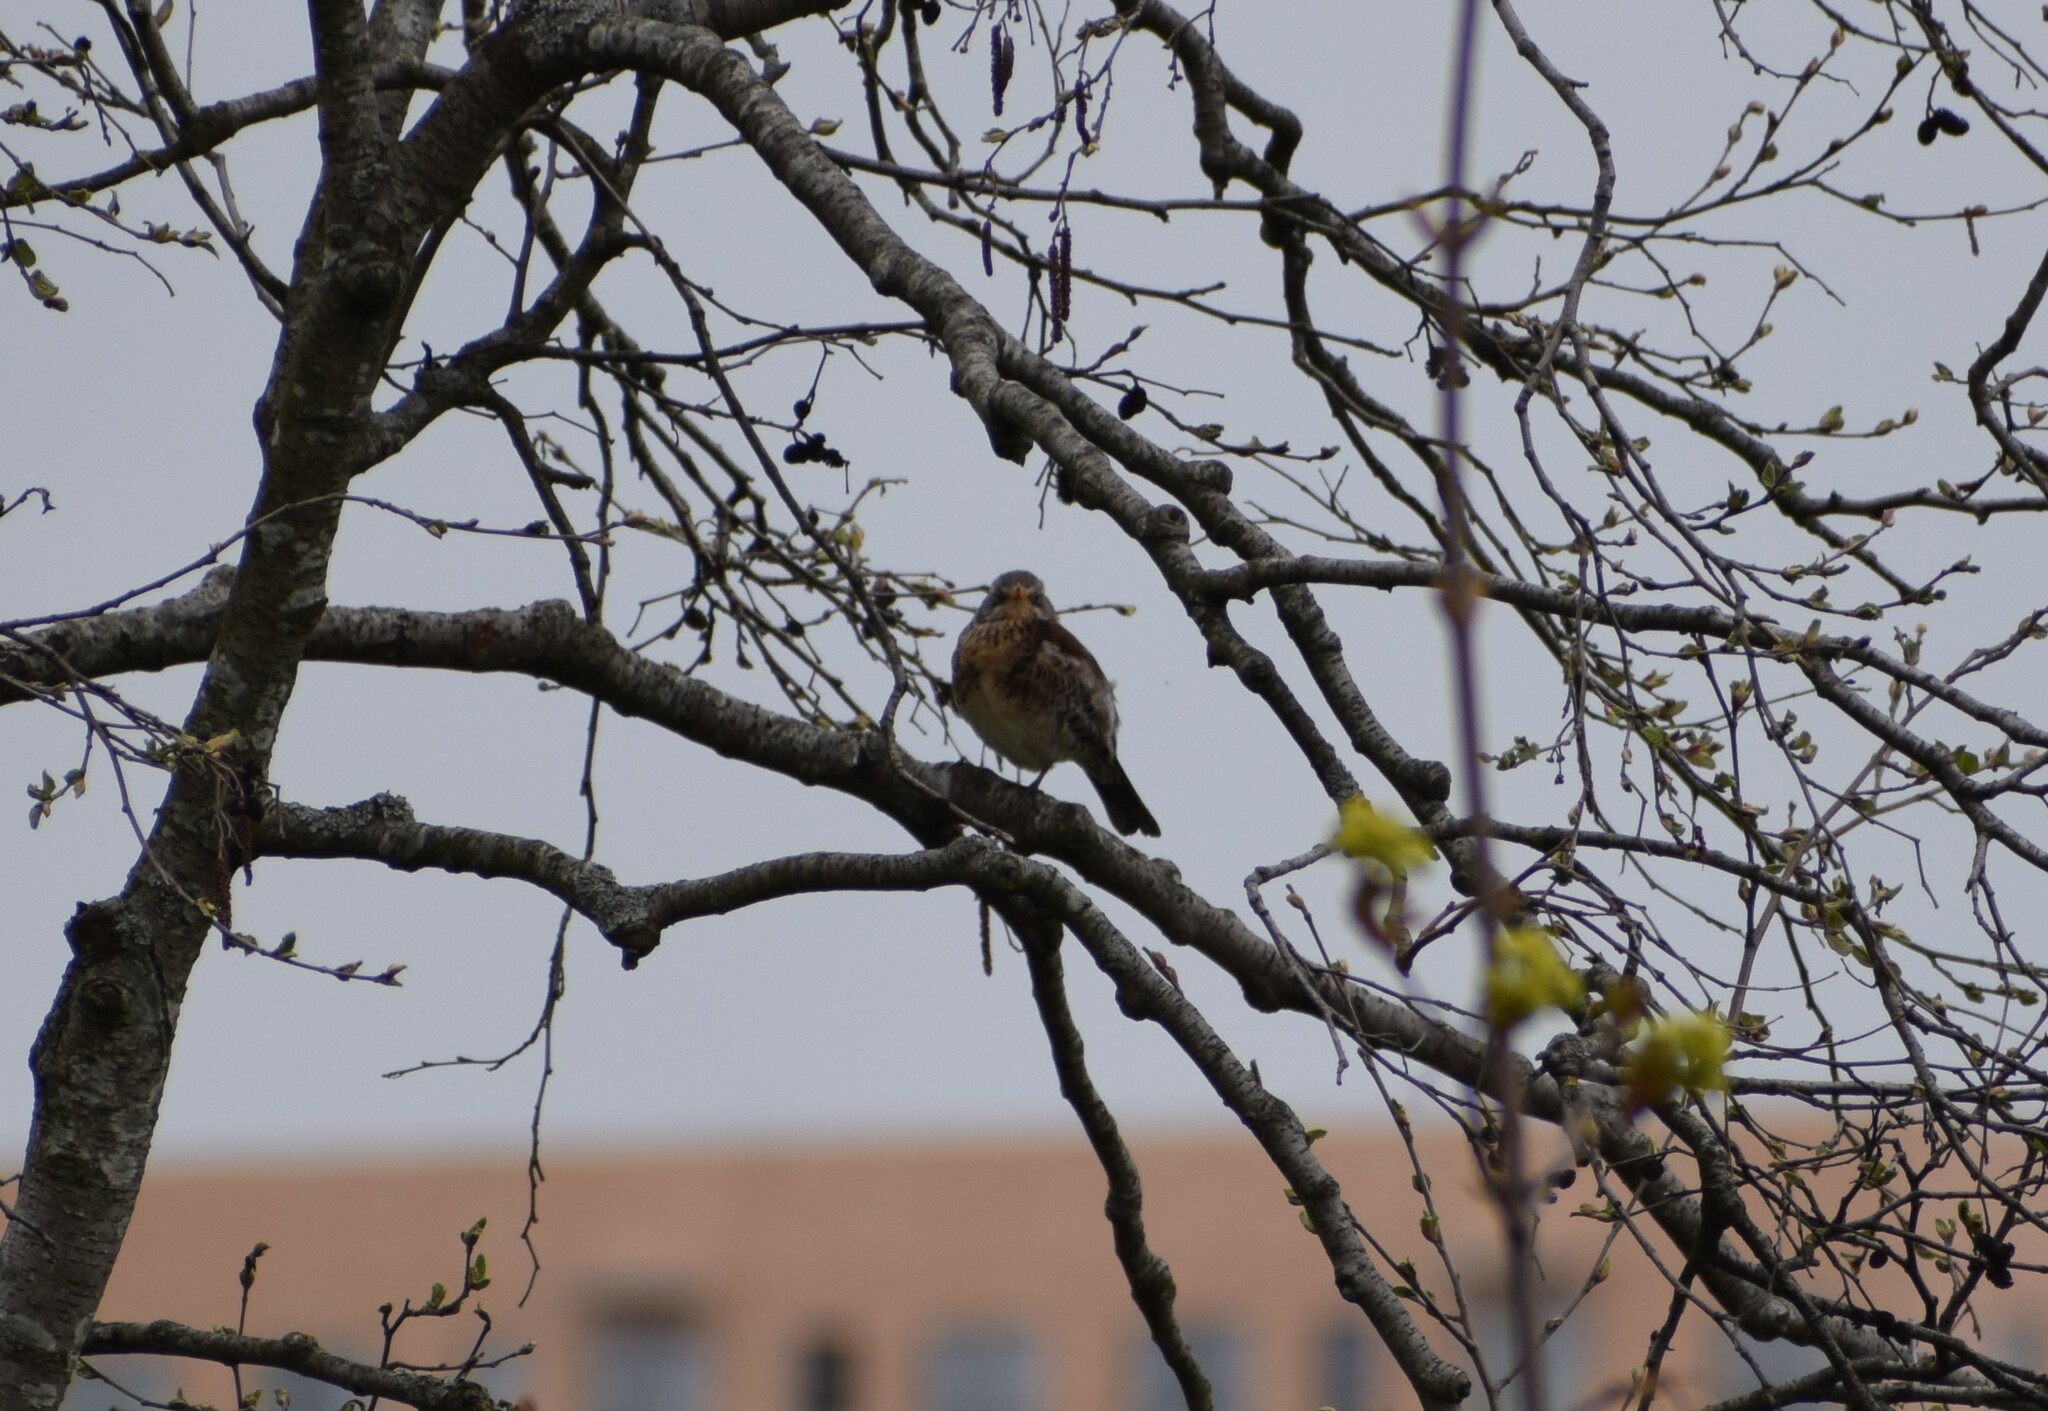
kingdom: Animalia
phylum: Chordata
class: Aves
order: Passeriformes
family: Turdidae
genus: Turdus
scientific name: Turdus pilaris
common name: Fieldfare
